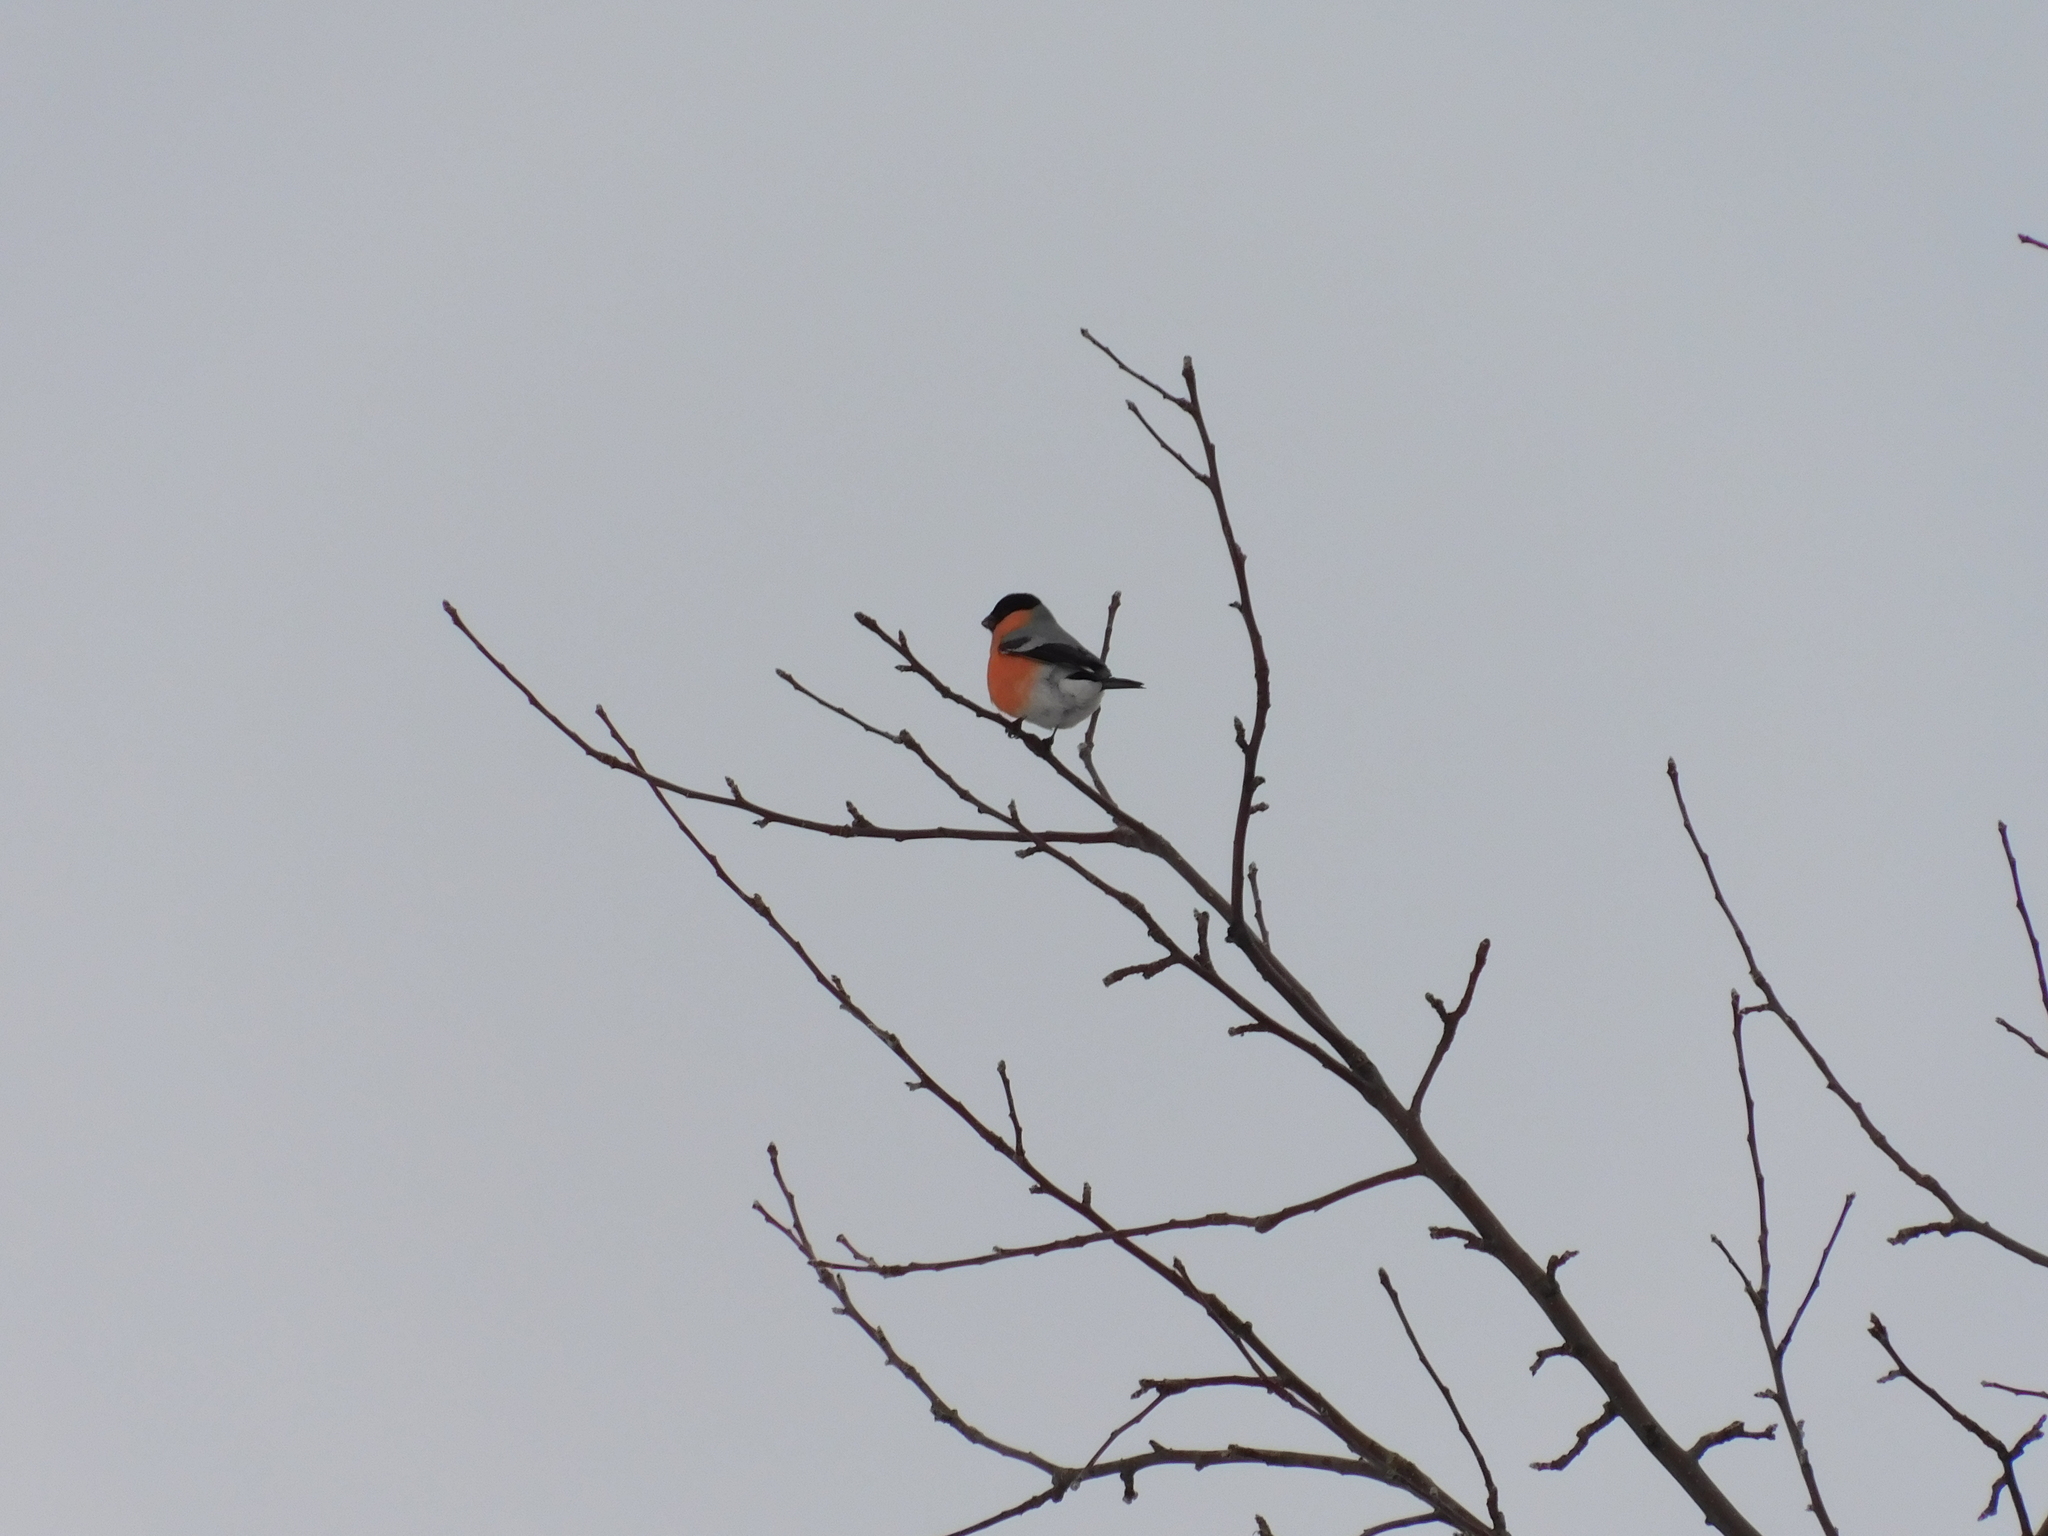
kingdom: Animalia
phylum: Chordata
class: Aves
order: Passeriformes
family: Fringillidae
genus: Pyrrhula
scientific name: Pyrrhula pyrrhula
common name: Eurasian bullfinch
